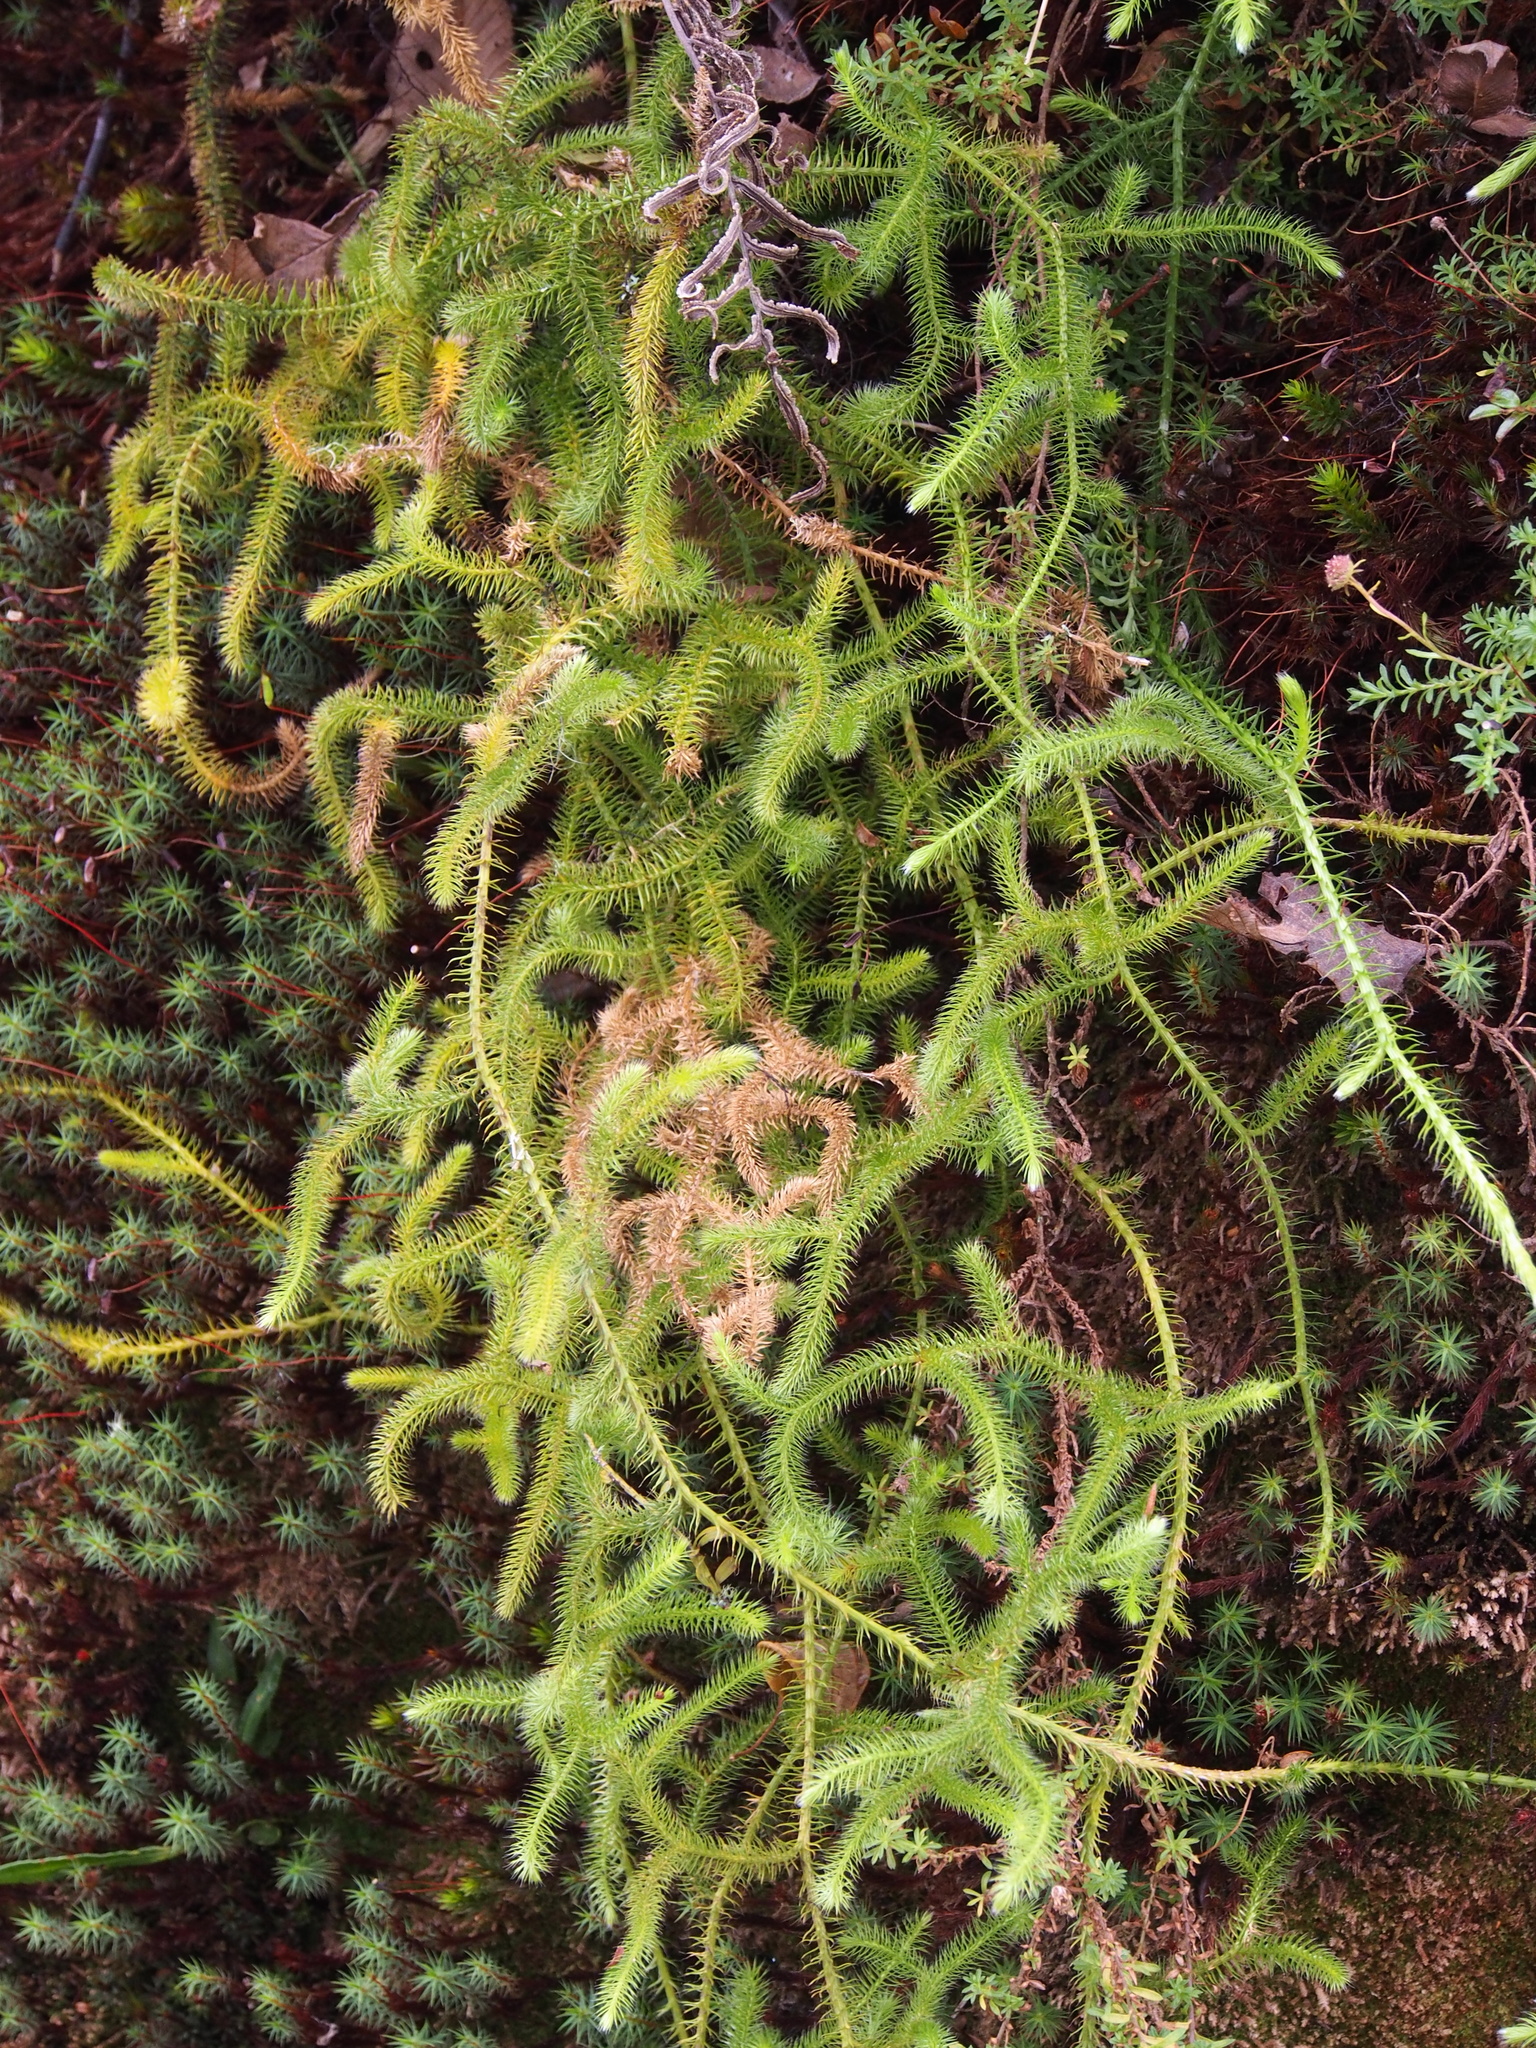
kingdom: Plantae
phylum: Tracheophyta
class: Lycopodiopsida
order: Lycopodiales
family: Lycopodiaceae
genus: Lycopodium
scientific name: Lycopodium clavatum
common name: Stag's-horn clubmoss
